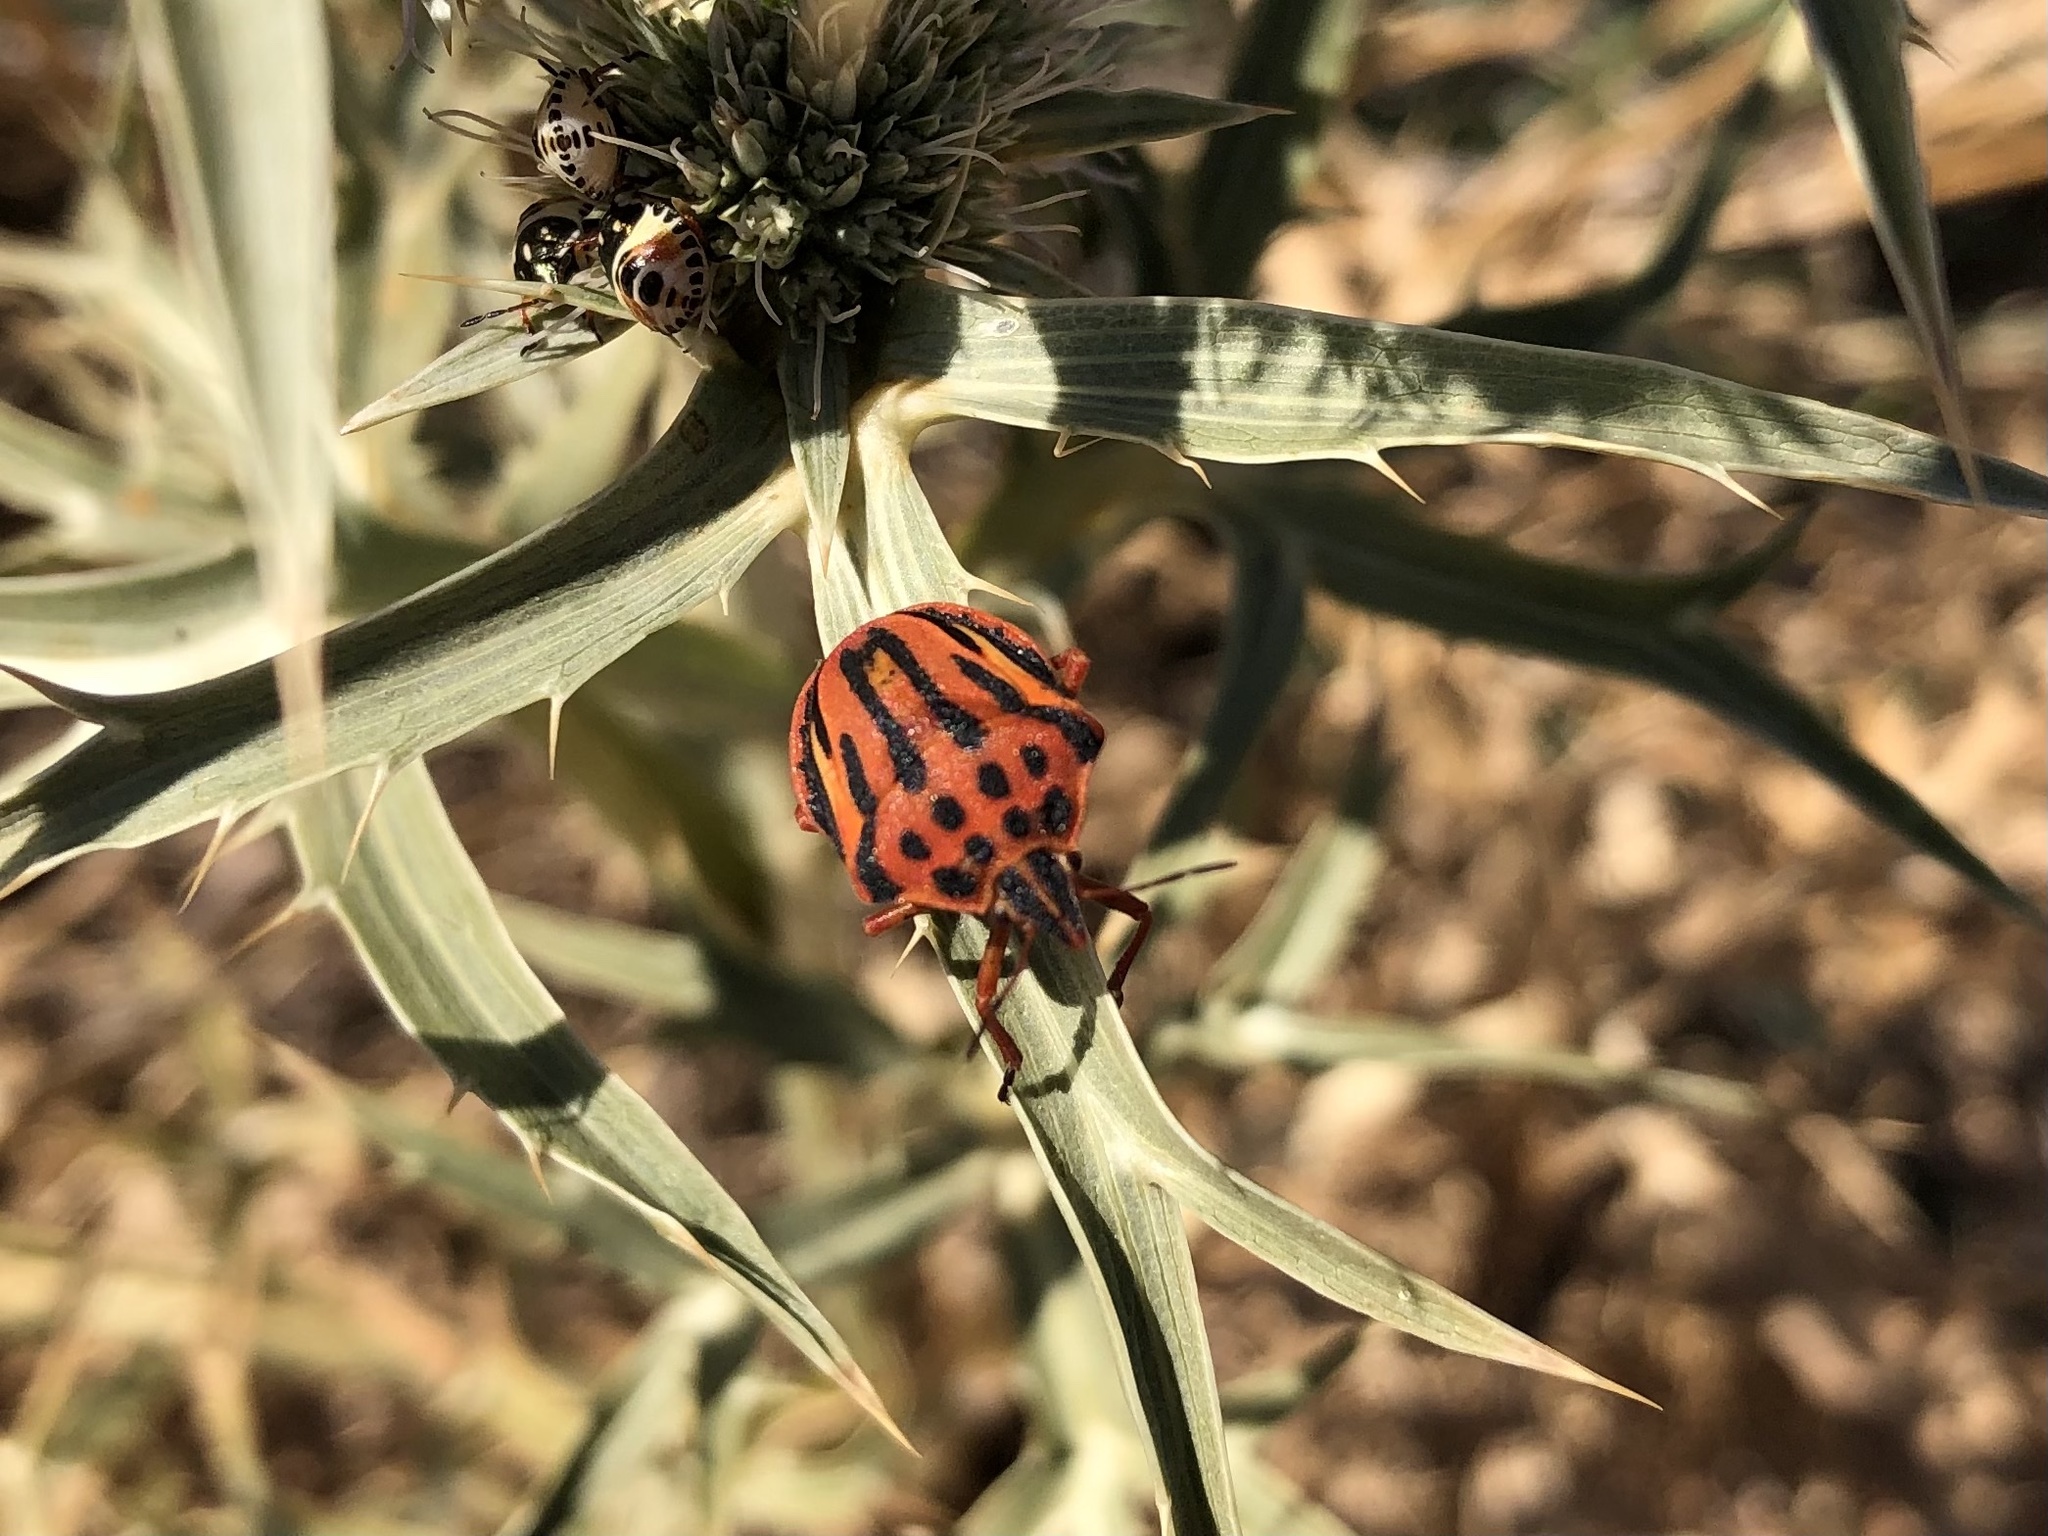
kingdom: Animalia
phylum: Arthropoda
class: Insecta
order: Hemiptera
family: Pentatomidae
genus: Graphosoma
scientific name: Graphosoma semipunctatum
